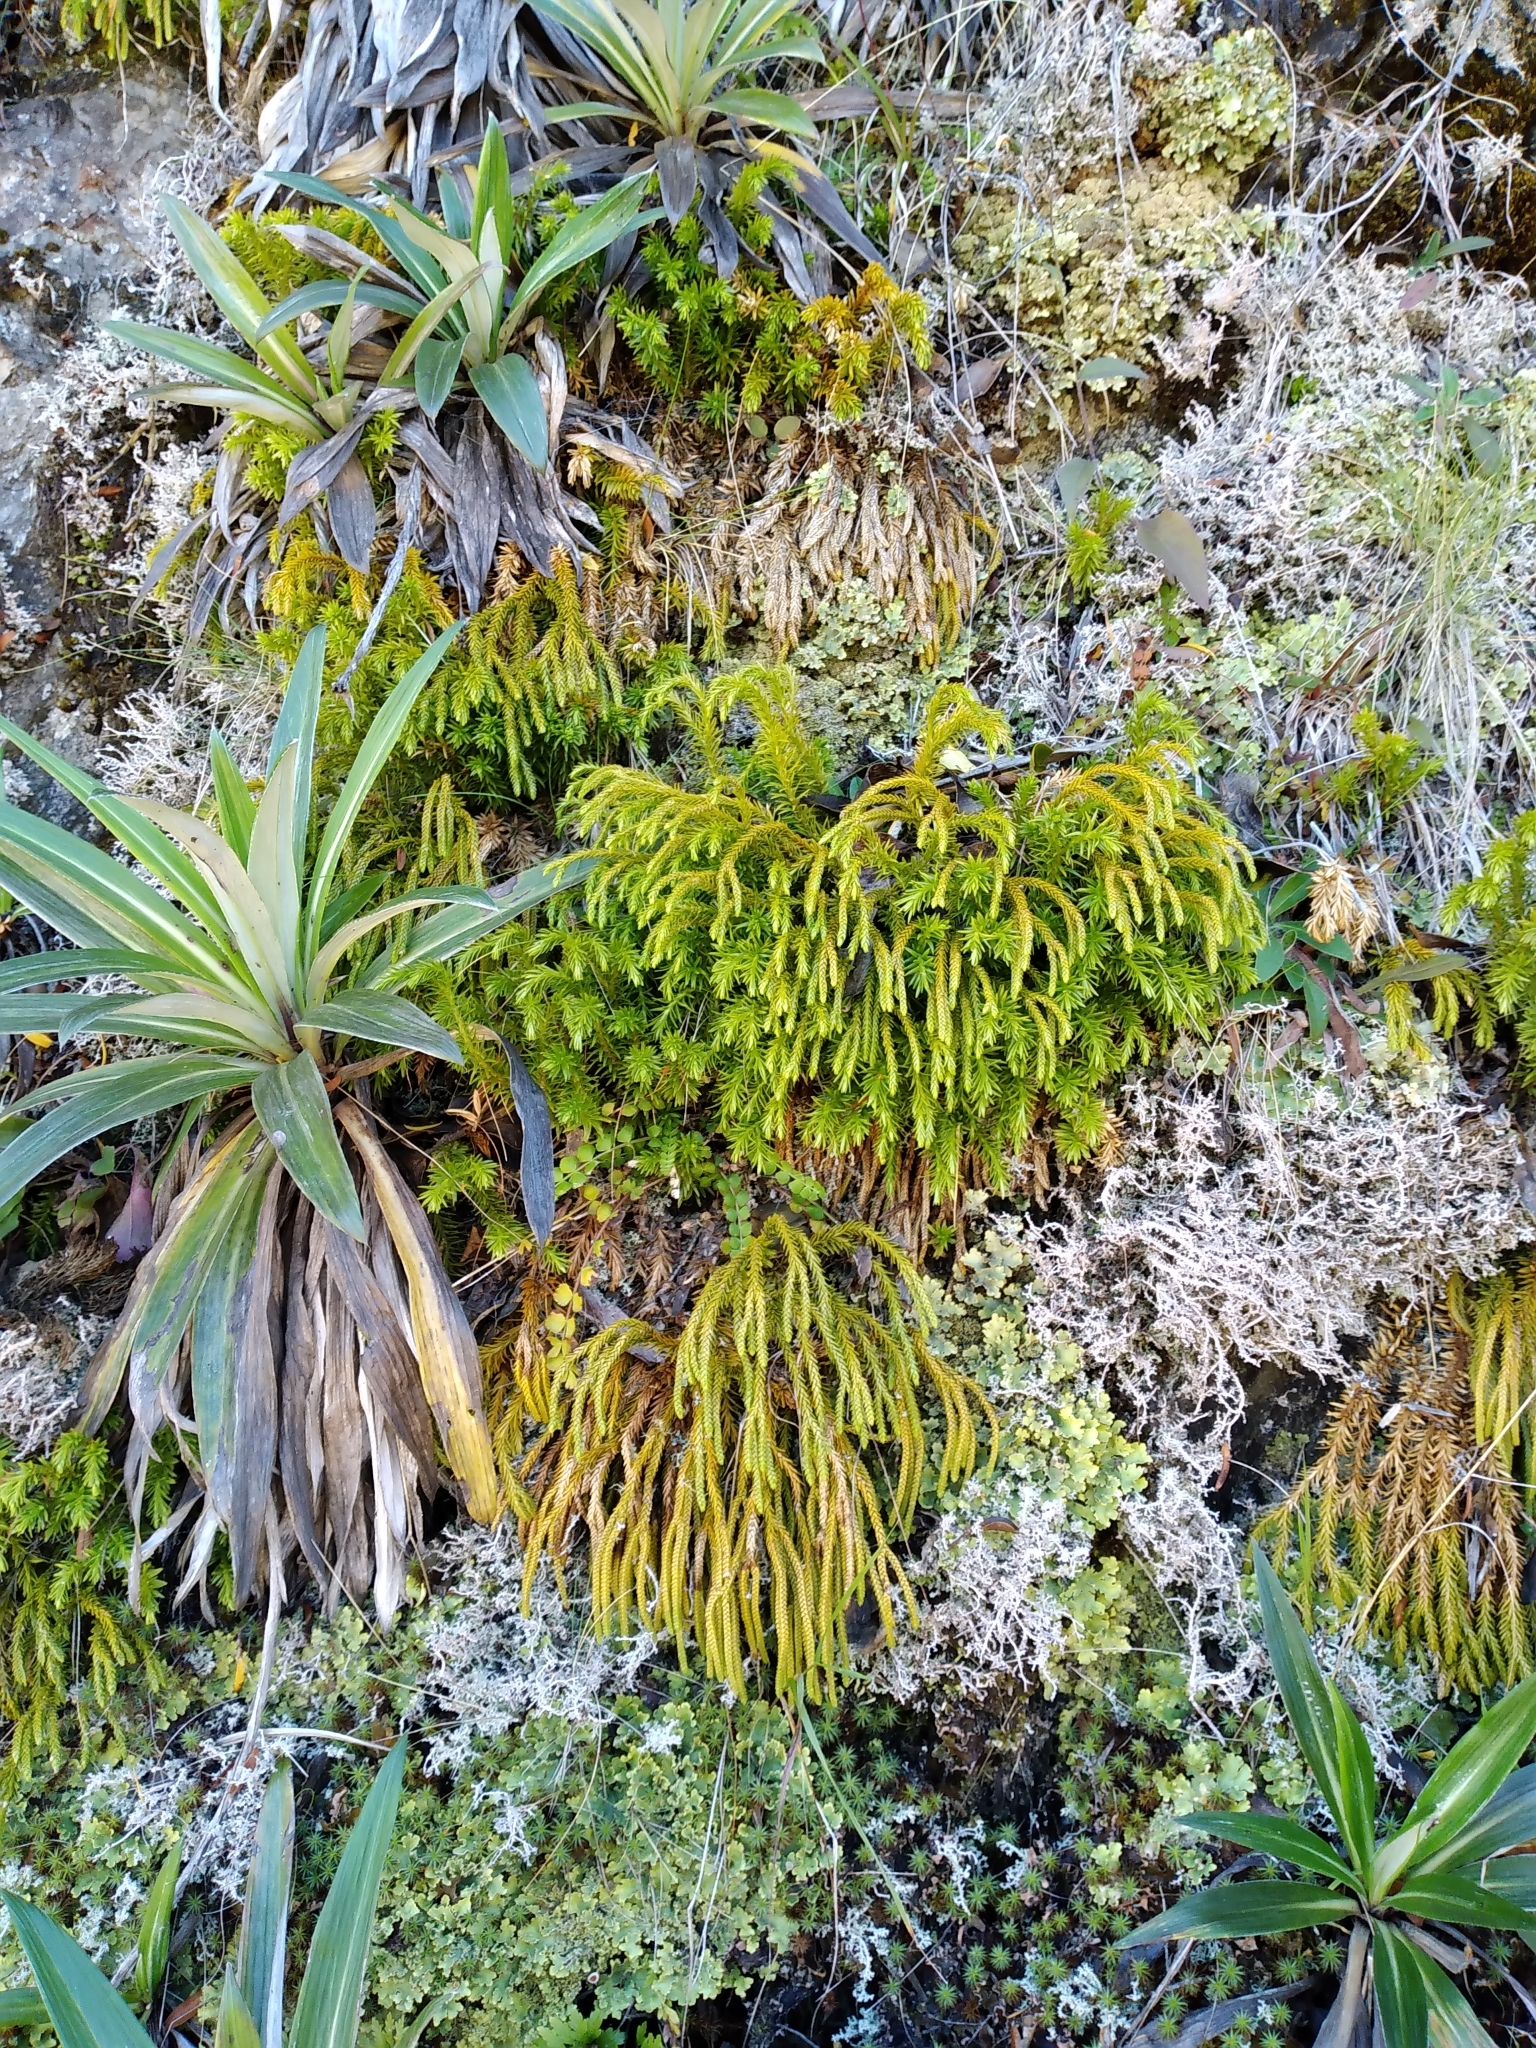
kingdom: Plantae
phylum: Tracheophyta
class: Lycopodiopsida
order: Lycopodiales
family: Lycopodiaceae
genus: Phlegmariurus
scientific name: Phlegmariurus varius
